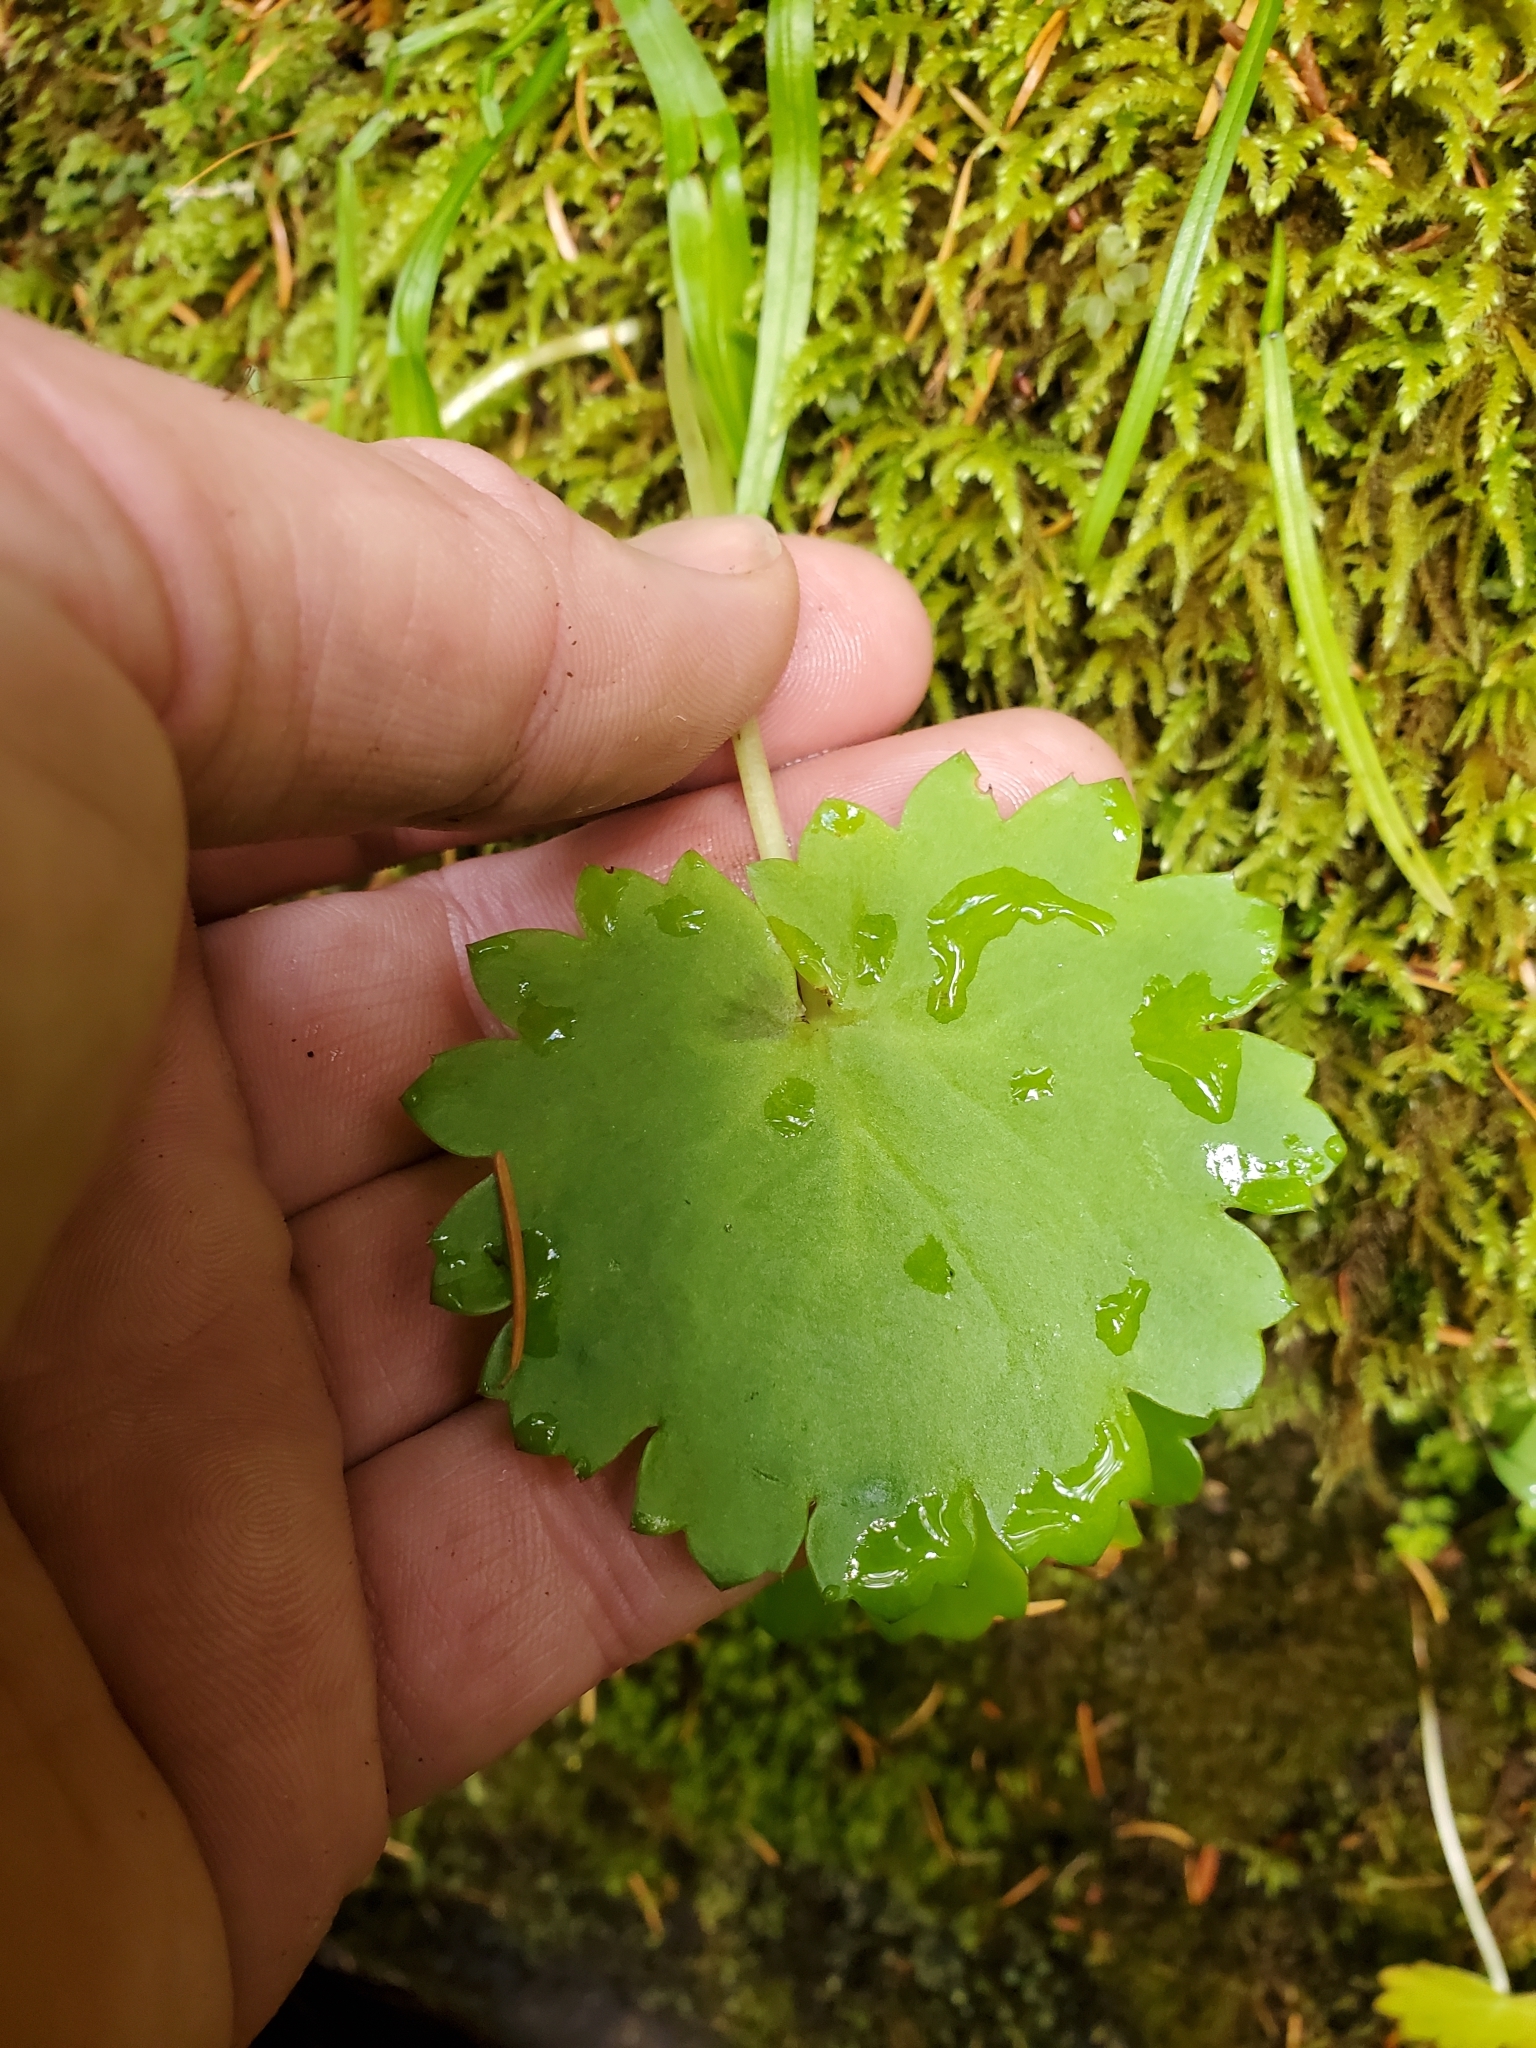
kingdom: Plantae
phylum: Tracheophyta
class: Magnoliopsida
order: Saxifragales
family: Saxifragaceae
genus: Micranthes
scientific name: Micranthes mertensiana
